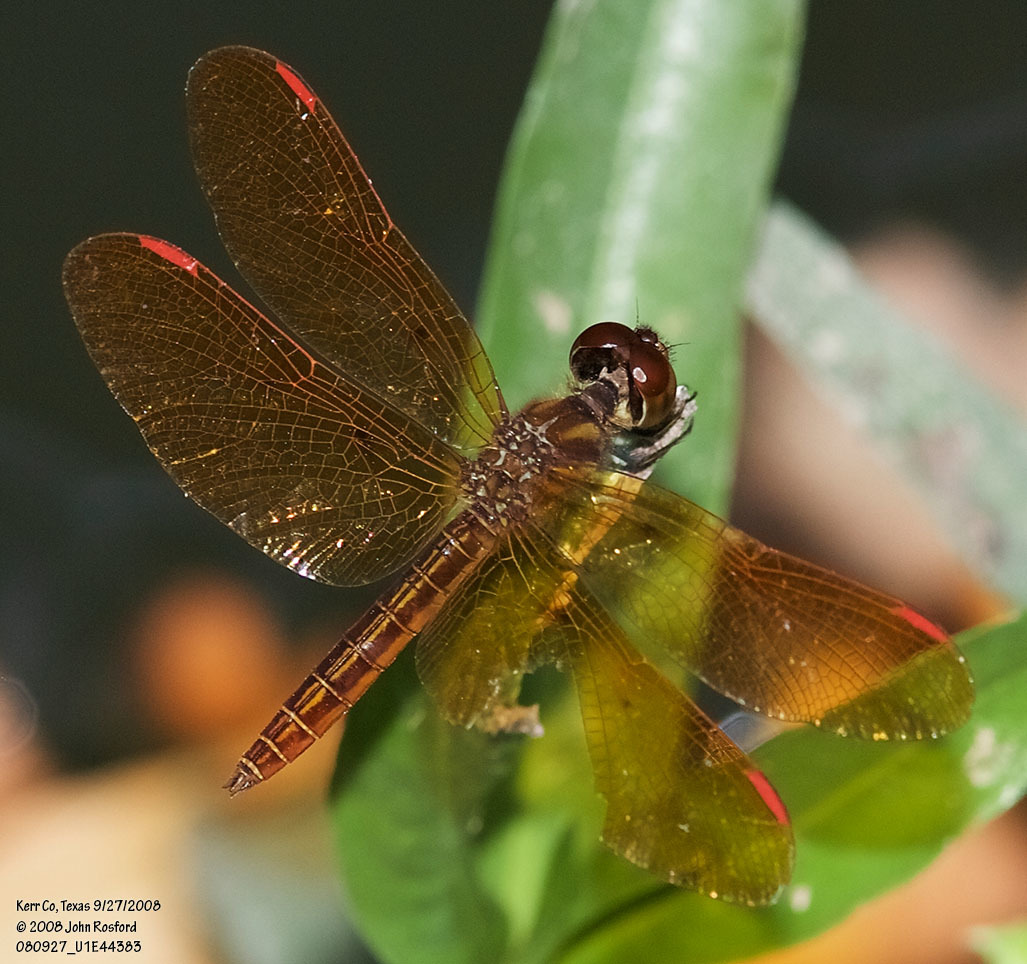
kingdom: Animalia
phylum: Arthropoda
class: Insecta
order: Odonata
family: Libellulidae
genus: Perithemis
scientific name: Perithemis domitia
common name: Slough amberwing
